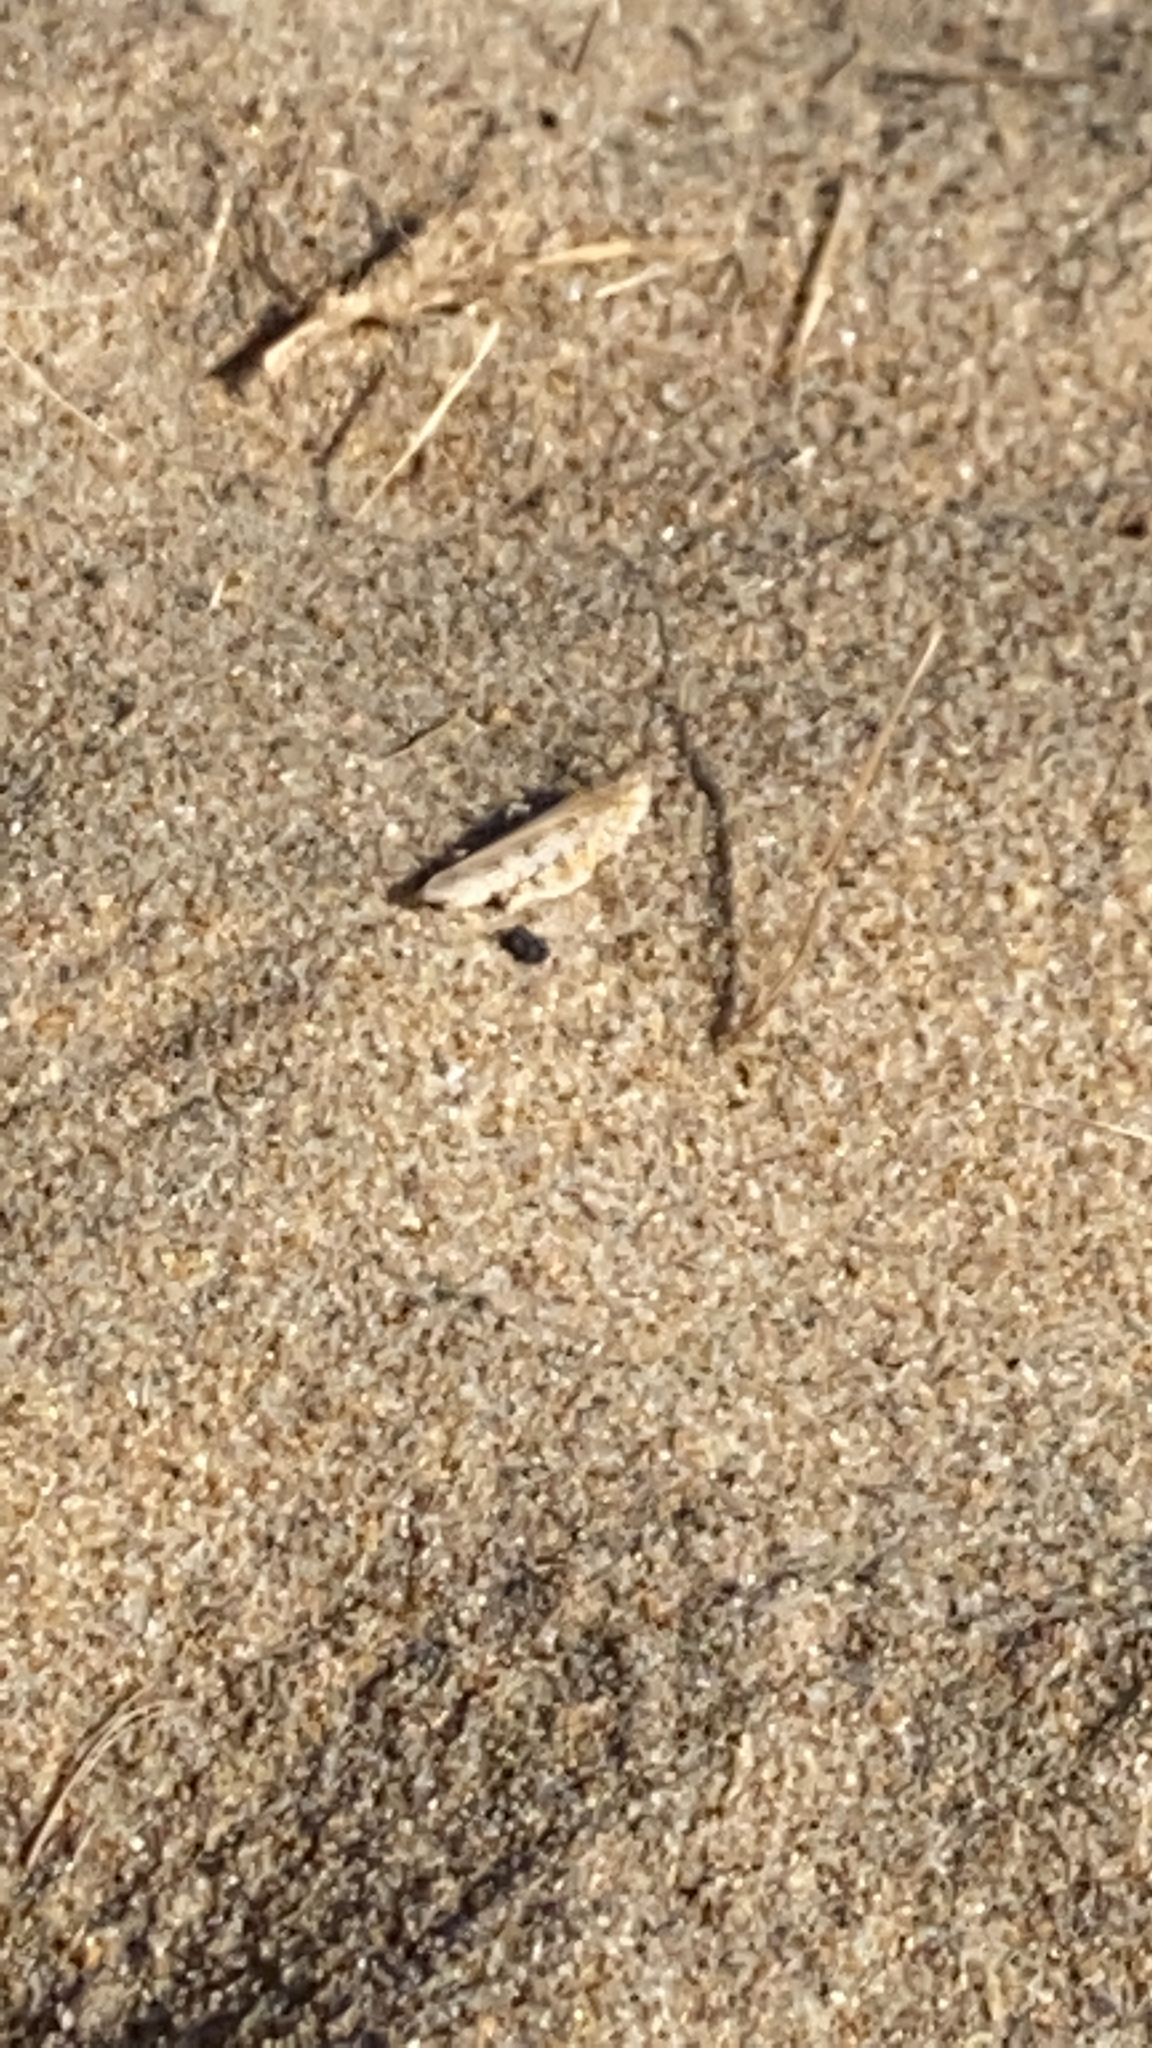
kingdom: Animalia
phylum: Arthropoda
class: Insecta
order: Orthoptera
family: Acrididae
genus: Trimerotropis
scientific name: Trimerotropis maritima
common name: Seaside locust
